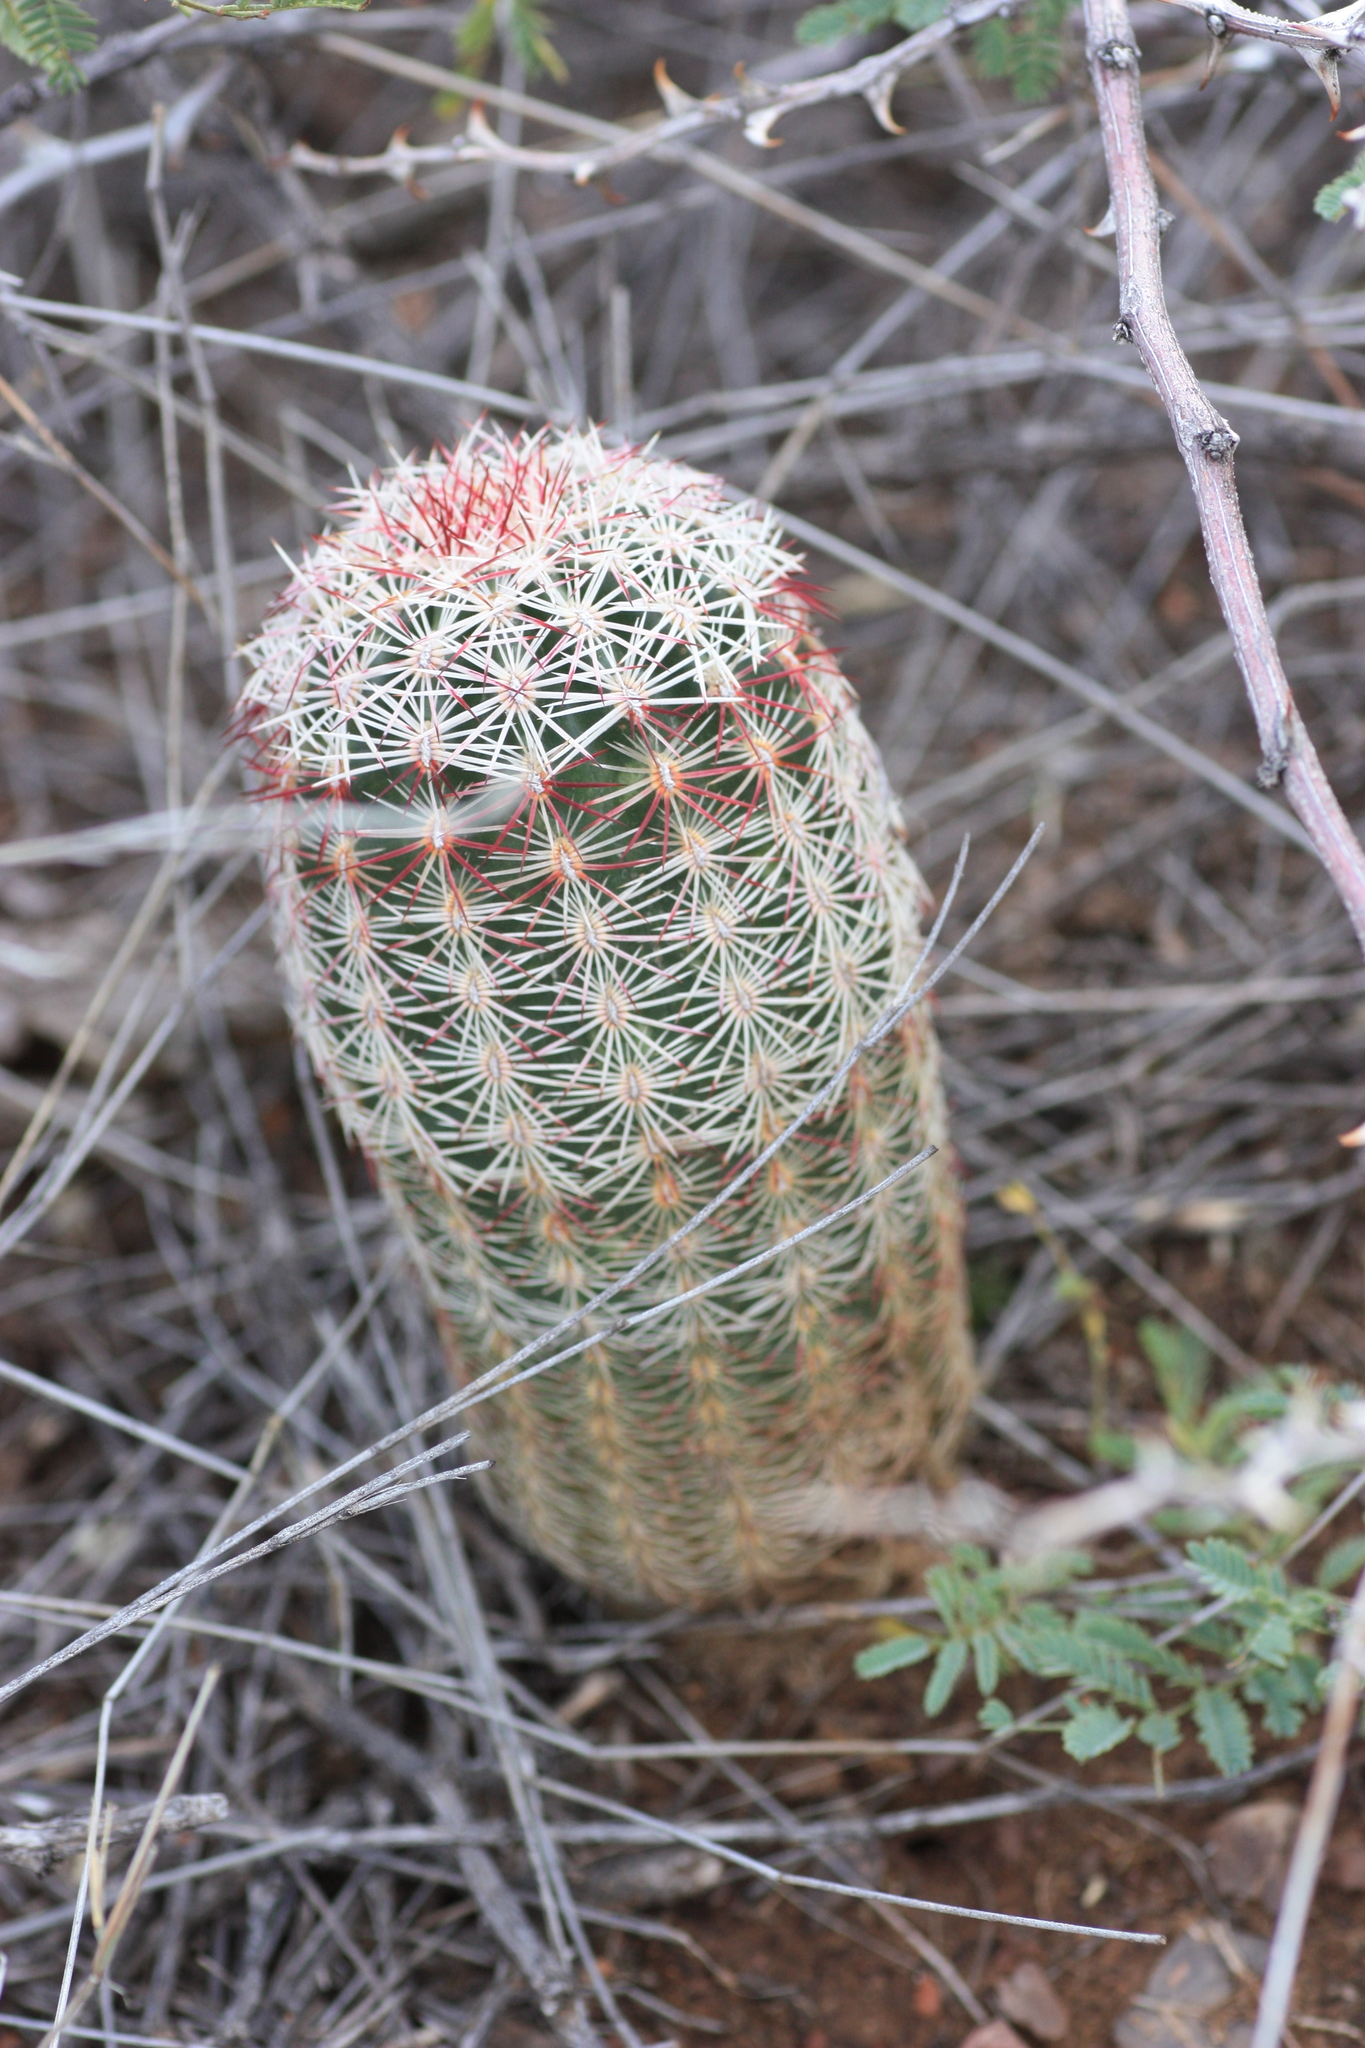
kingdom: Plantae
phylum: Tracheophyta
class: Magnoliopsida
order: Caryophyllales
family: Cactaceae
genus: Echinocereus
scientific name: Echinocereus viridiflorus
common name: Nylon hedgehog cactus
